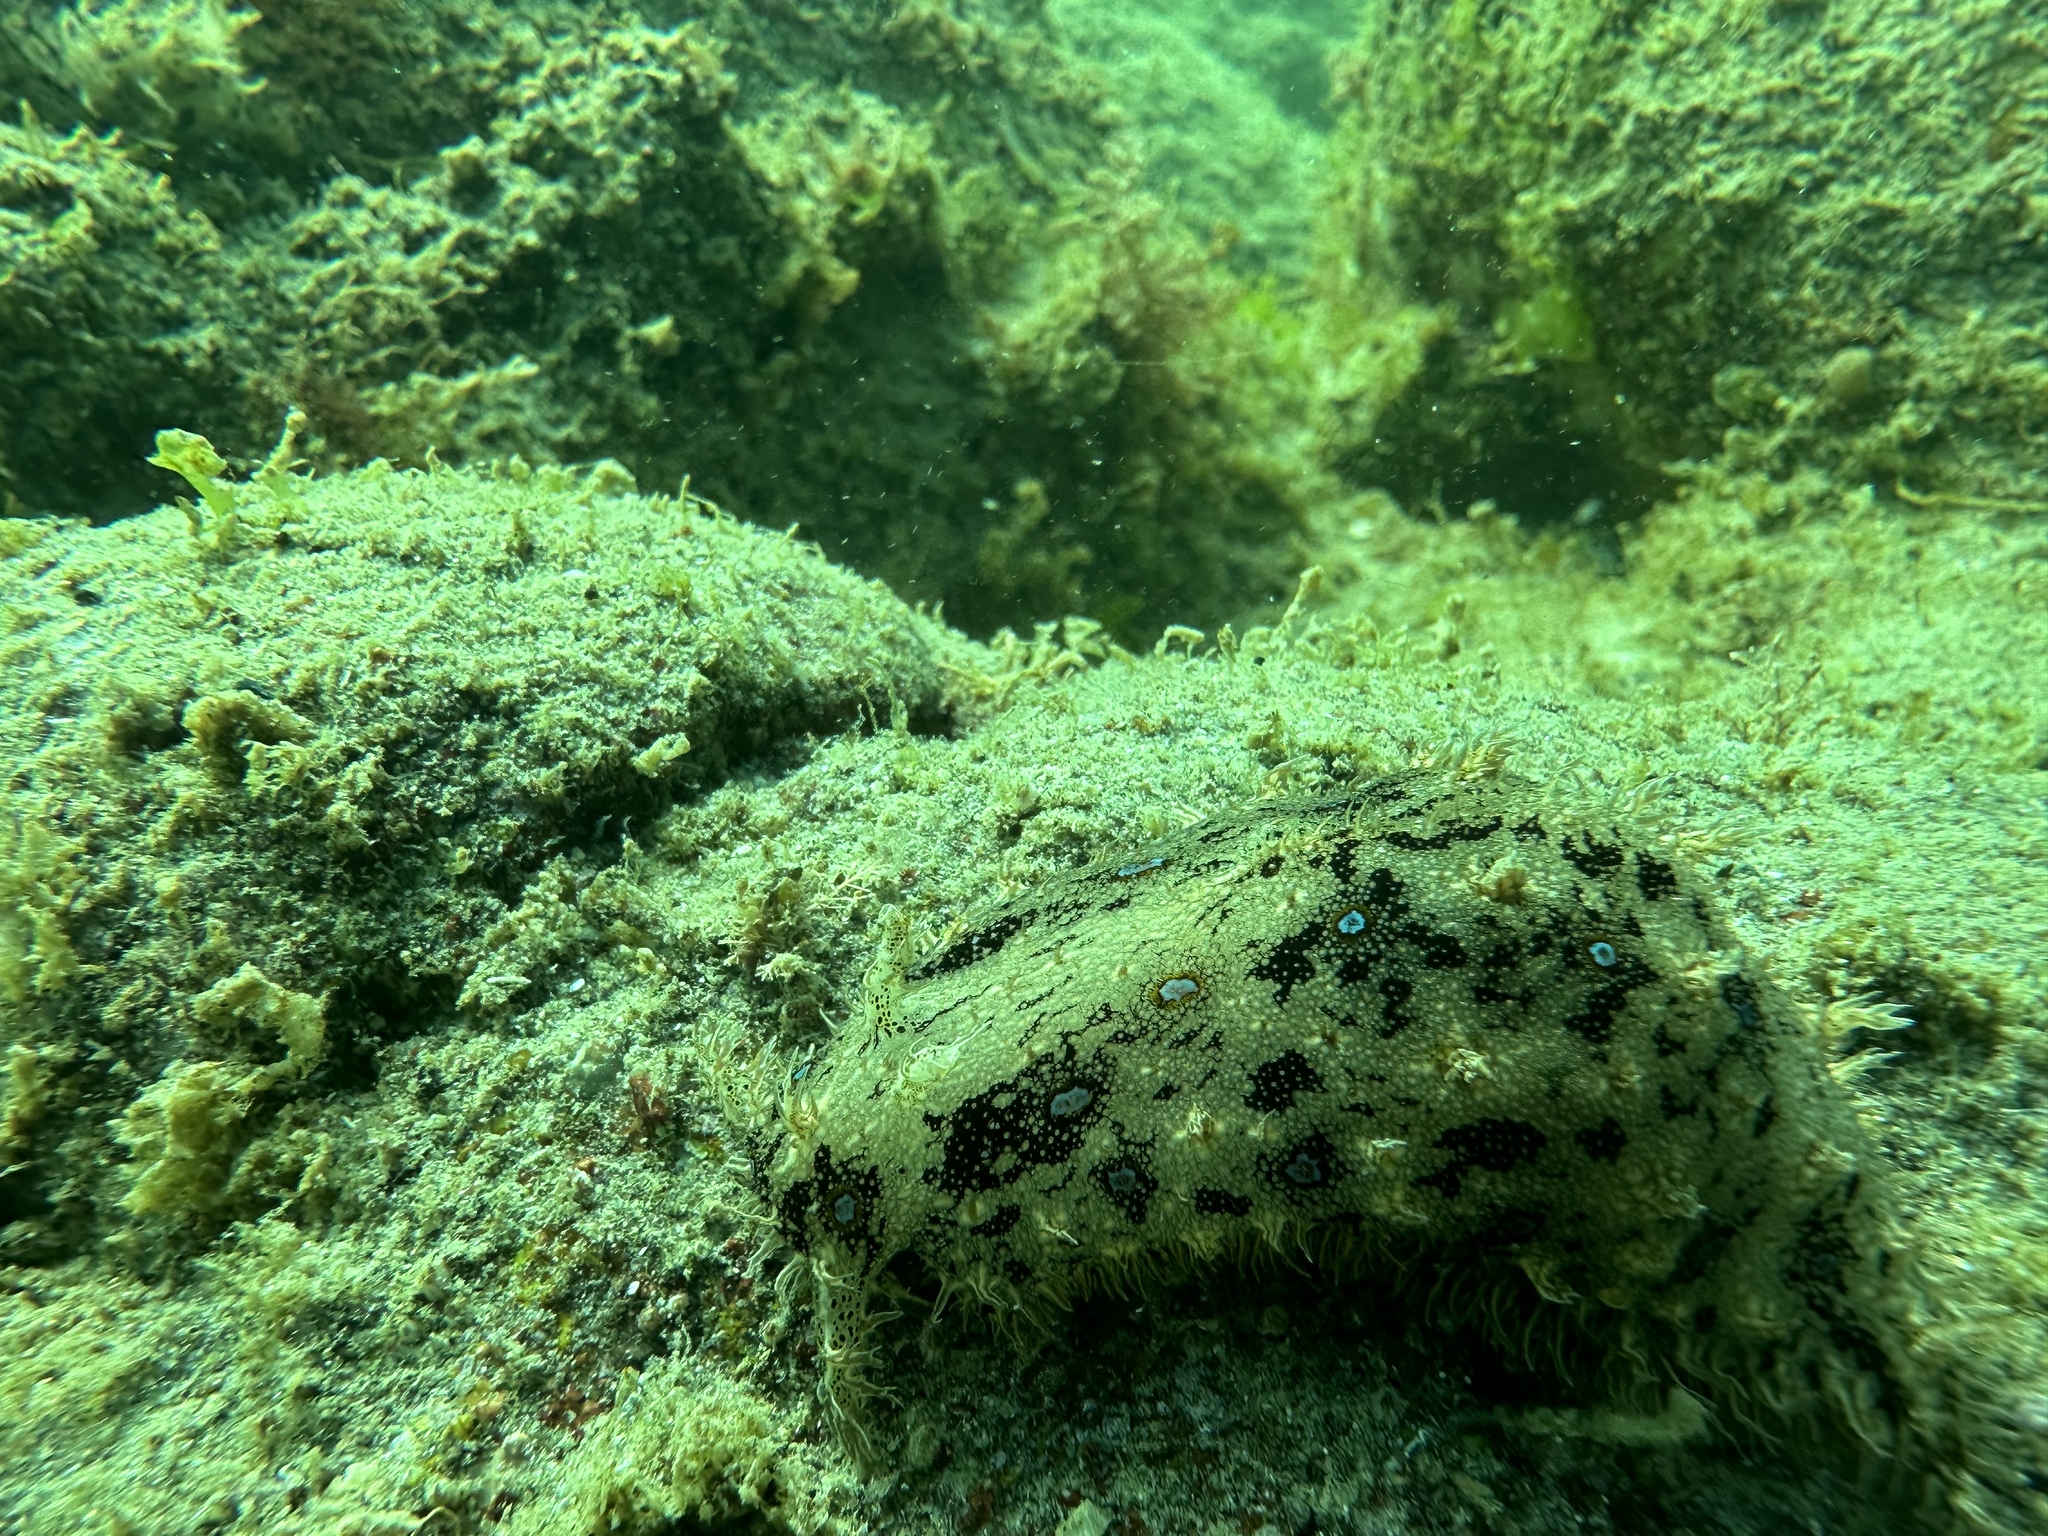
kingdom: Animalia
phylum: Mollusca
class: Gastropoda
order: Aplysiida
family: Aplysiidae
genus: Bursatella
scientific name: Bursatella leachii
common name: Shaggy sea hare
